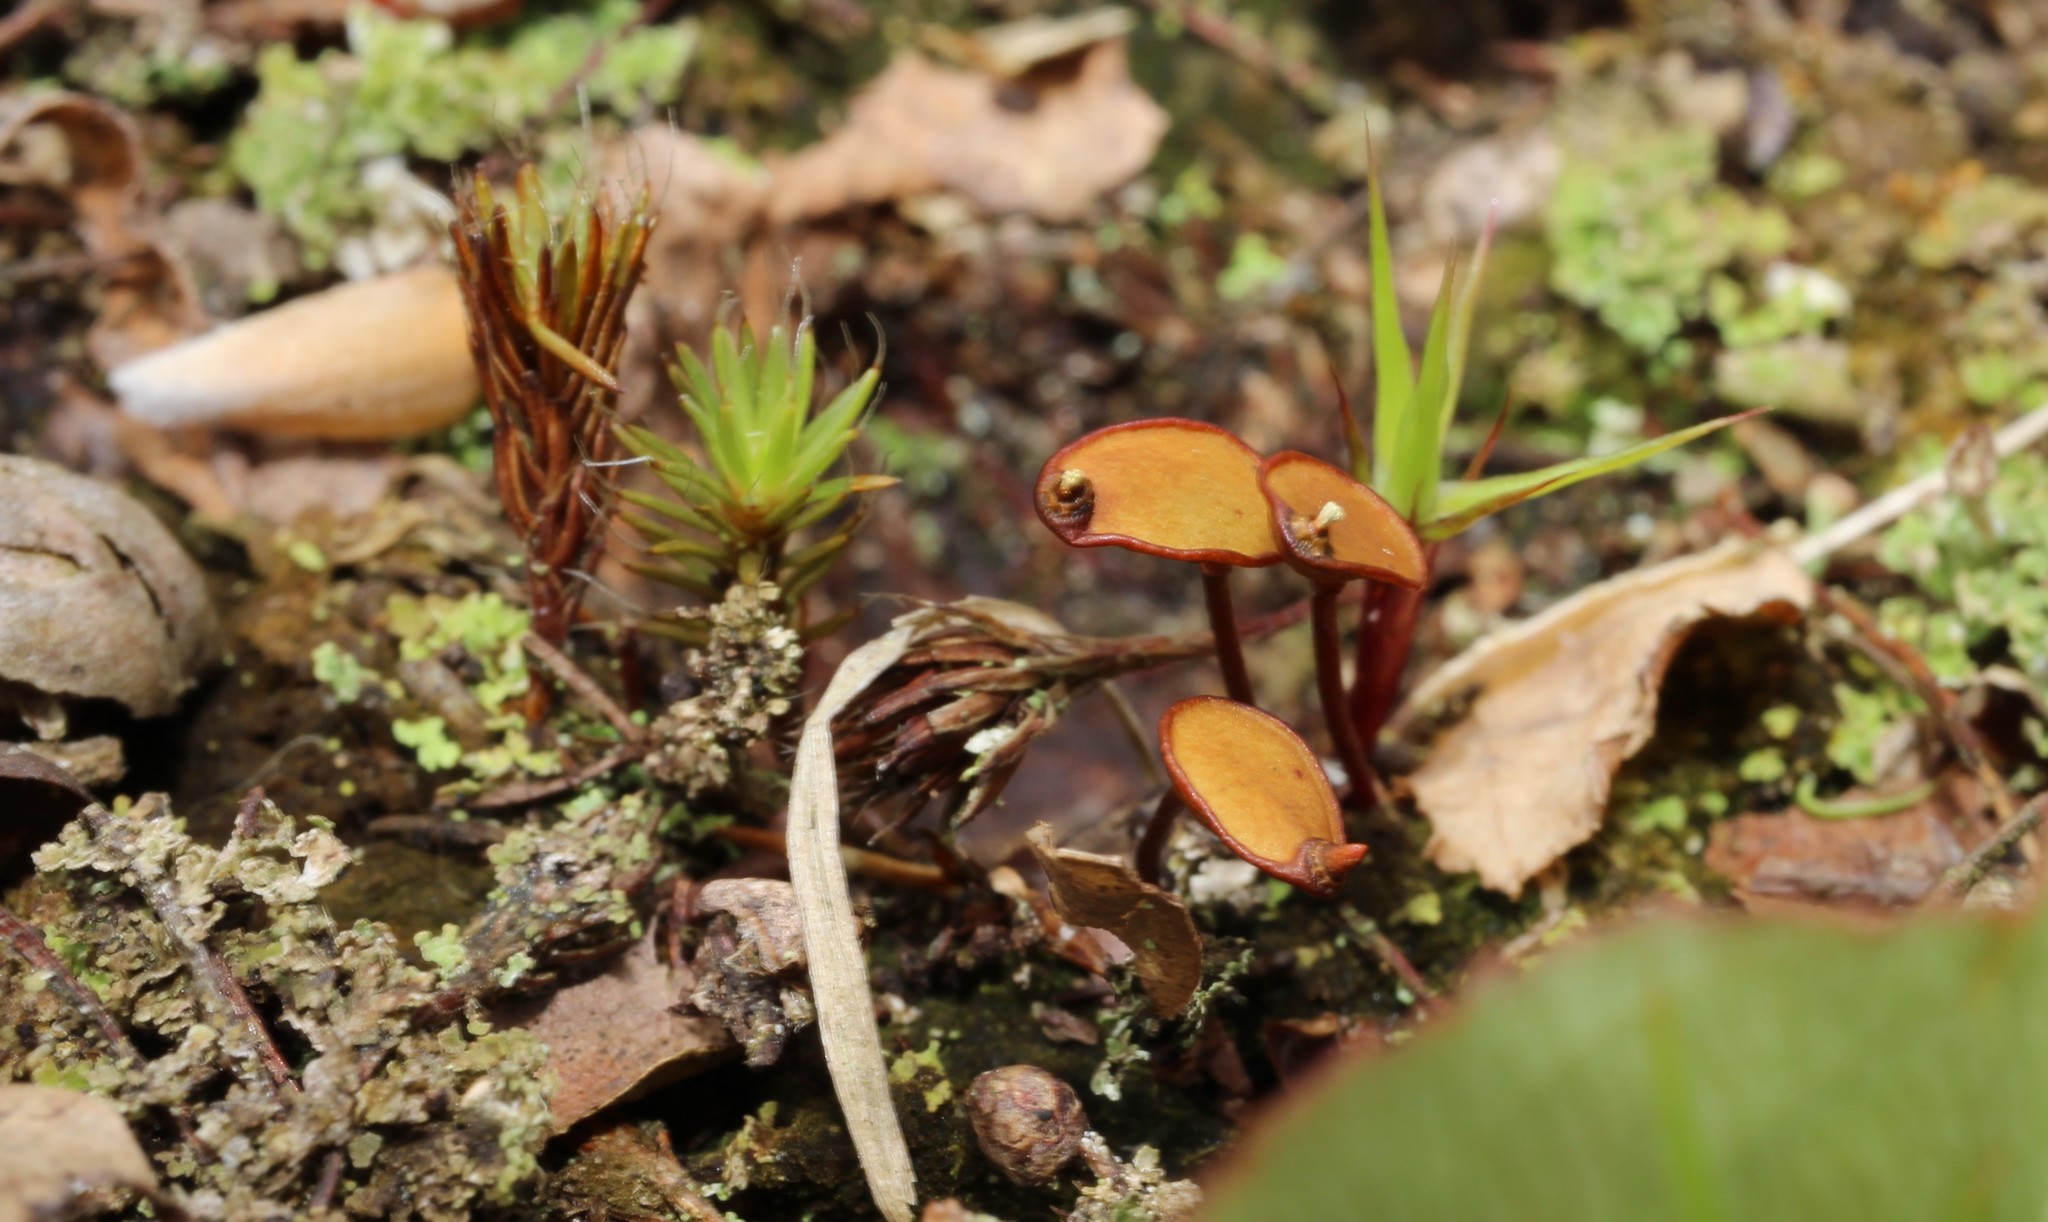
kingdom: Plantae
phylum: Bryophyta
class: Bryopsida
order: Buxbaumiales
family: Buxbaumiaceae
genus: Buxbaumia
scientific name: Buxbaumia aphylla
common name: Brown shield-moss
